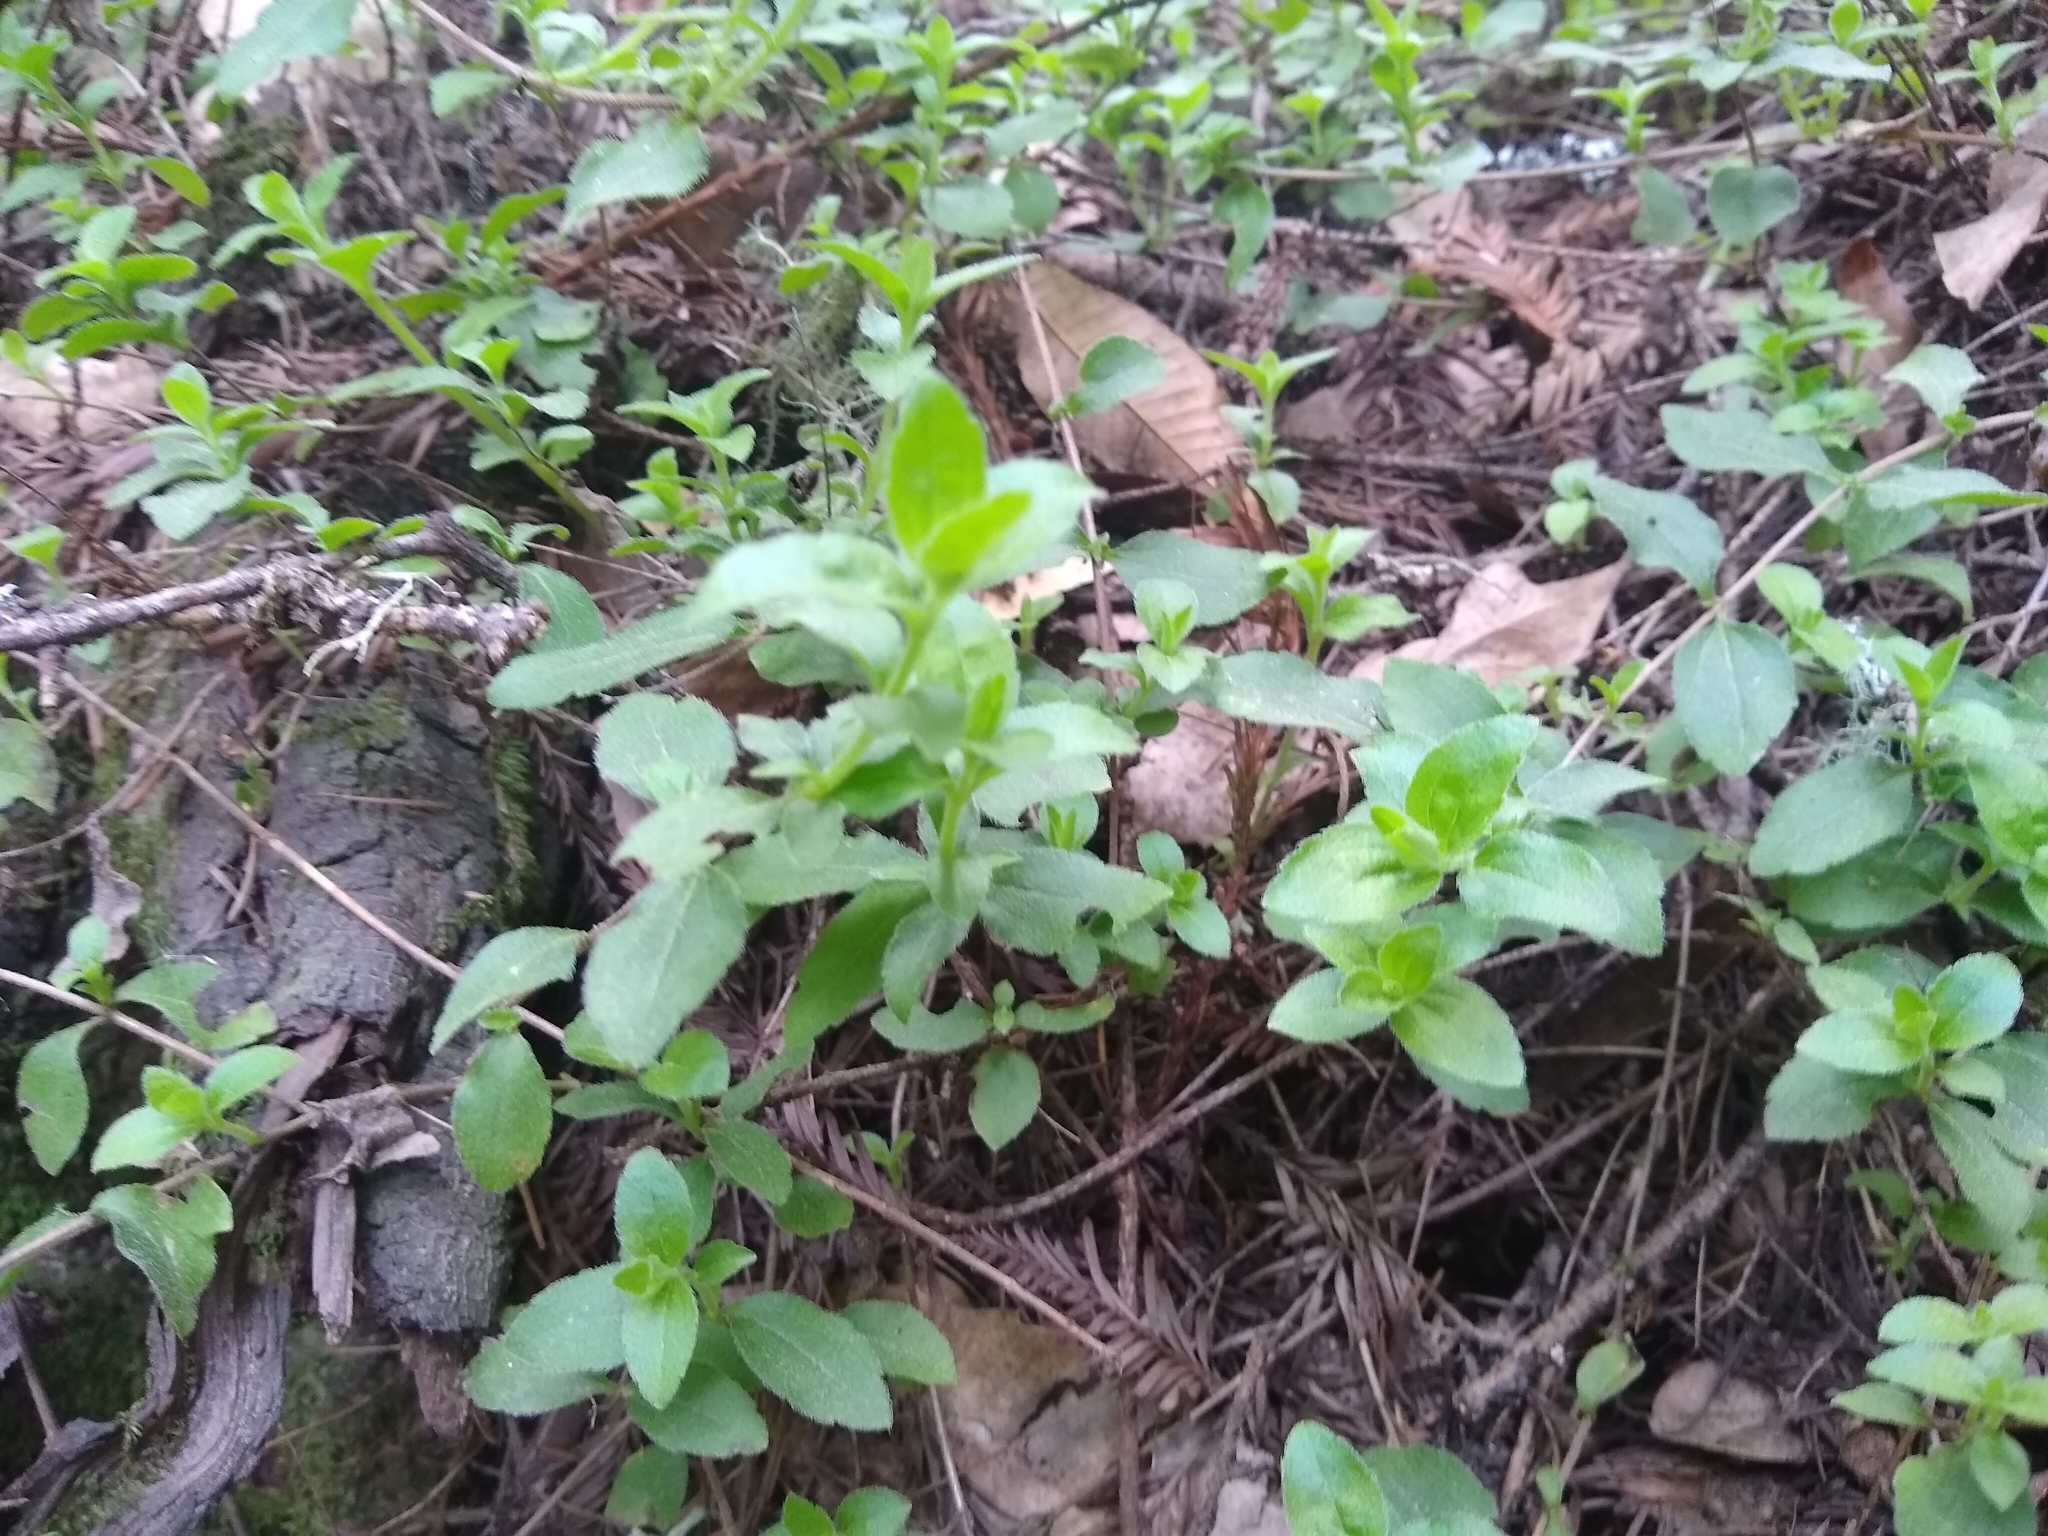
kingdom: Plantae
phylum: Tracheophyta
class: Magnoliopsida
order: Cornales
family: Hydrangeaceae
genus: Whipplea
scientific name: Whipplea modesta
